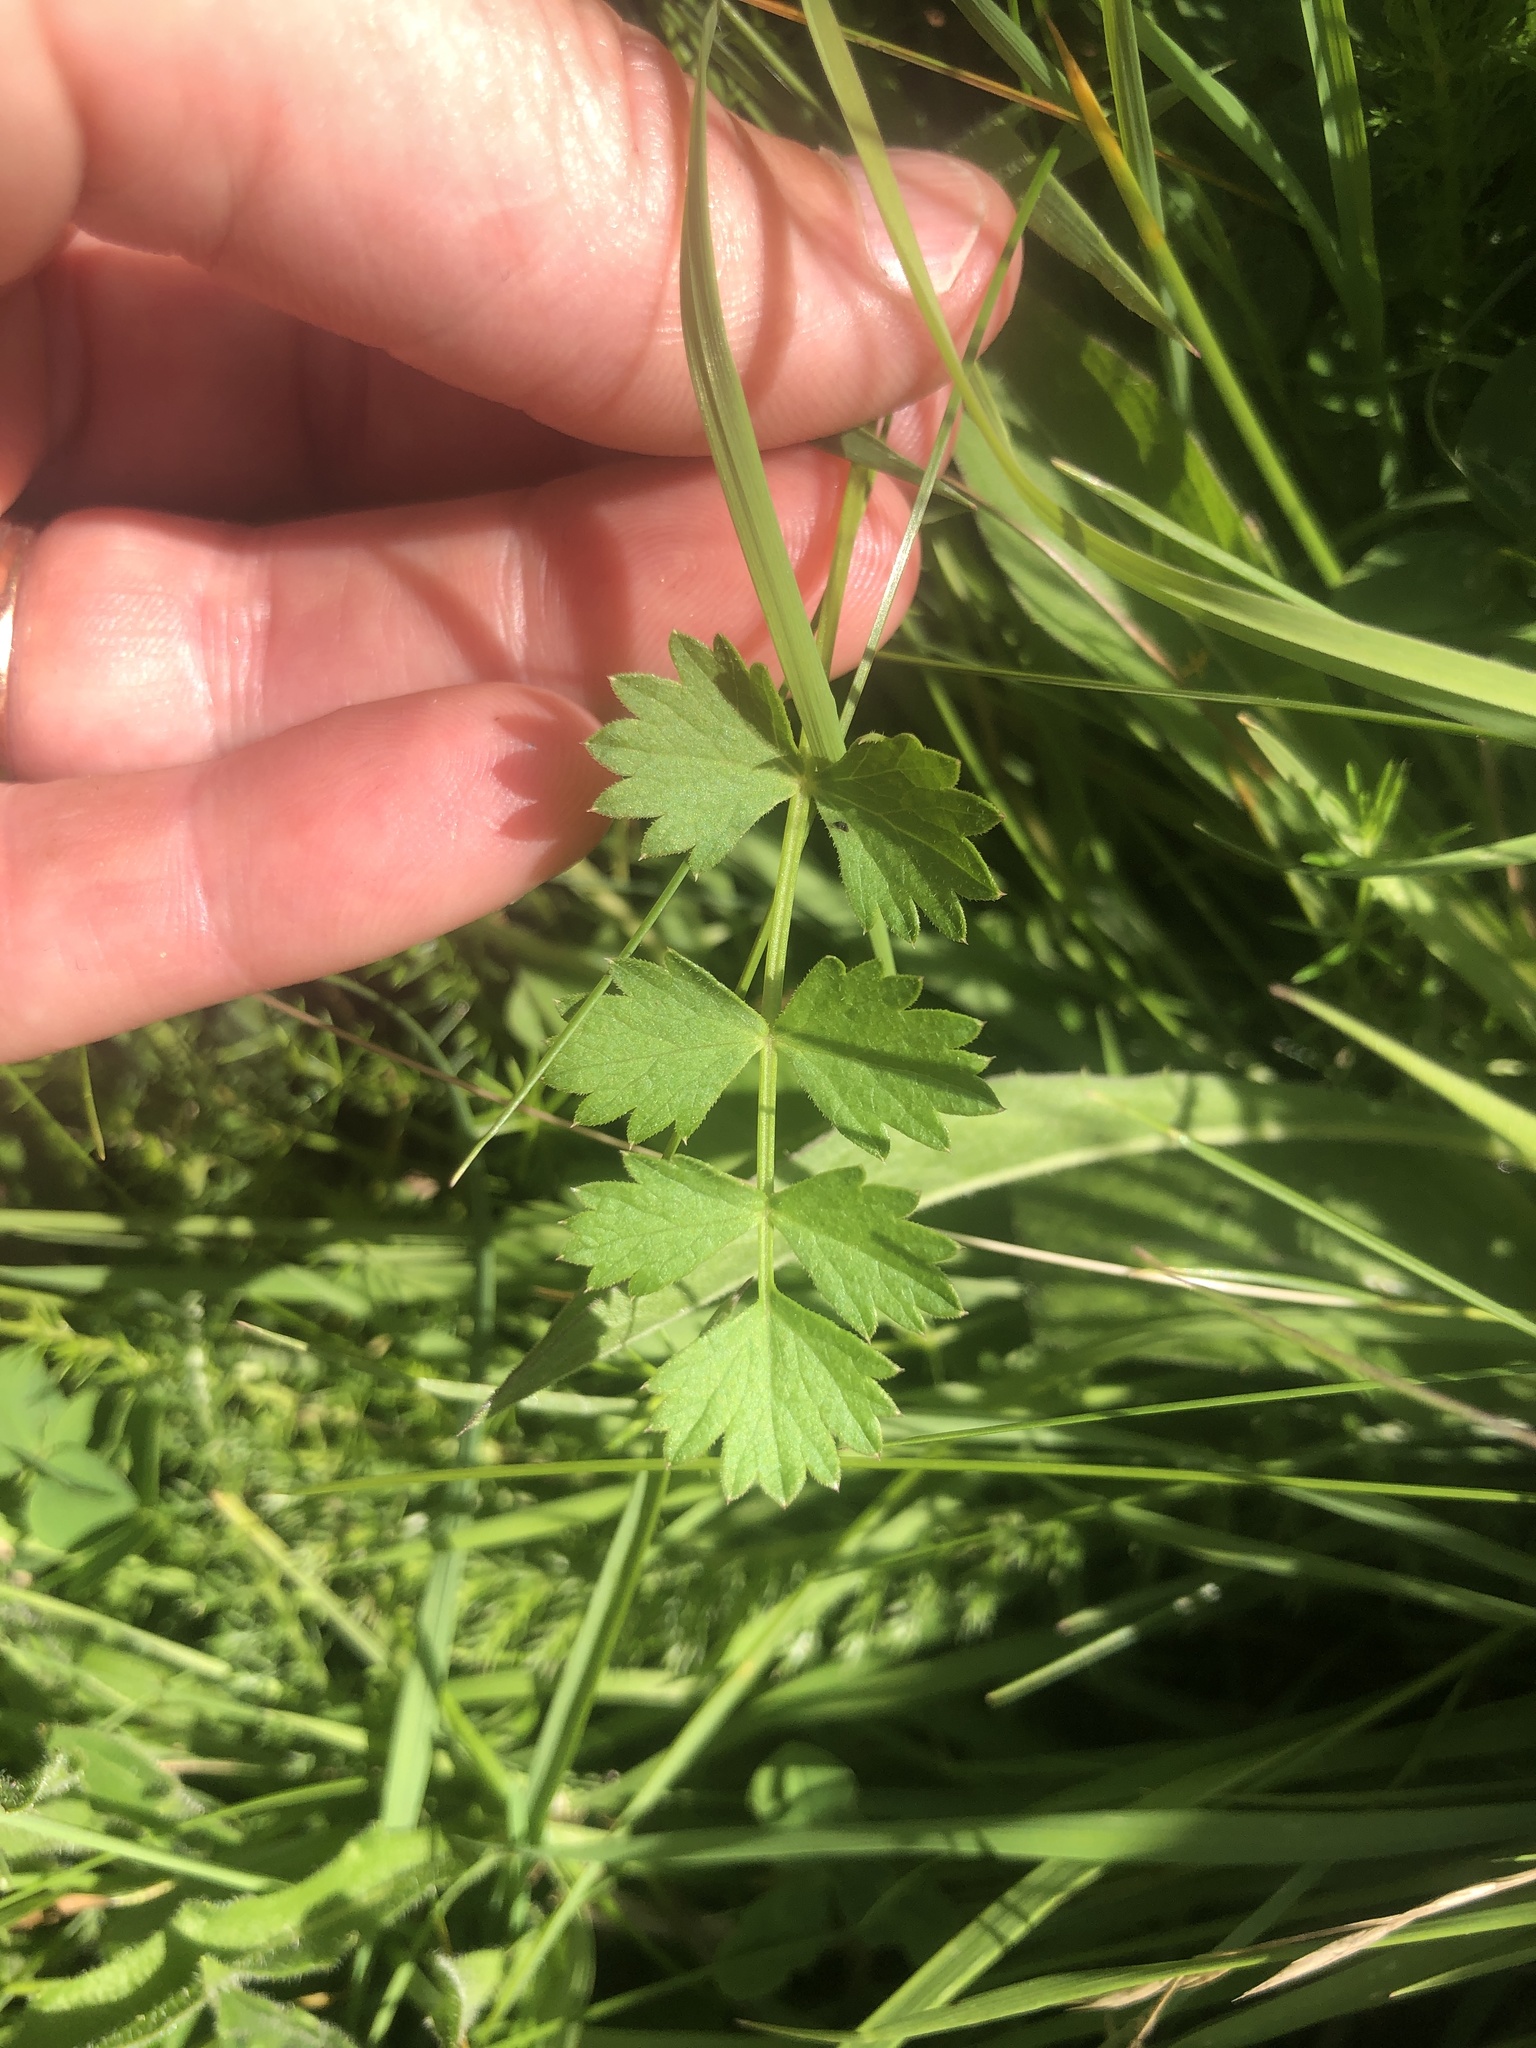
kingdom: Plantae
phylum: Tracheophyta
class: Magnoliopsida
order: Apiales
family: Apiaceae
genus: Pimpinella
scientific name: Pimpinella saxifraga
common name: Burnet-saxifrage
